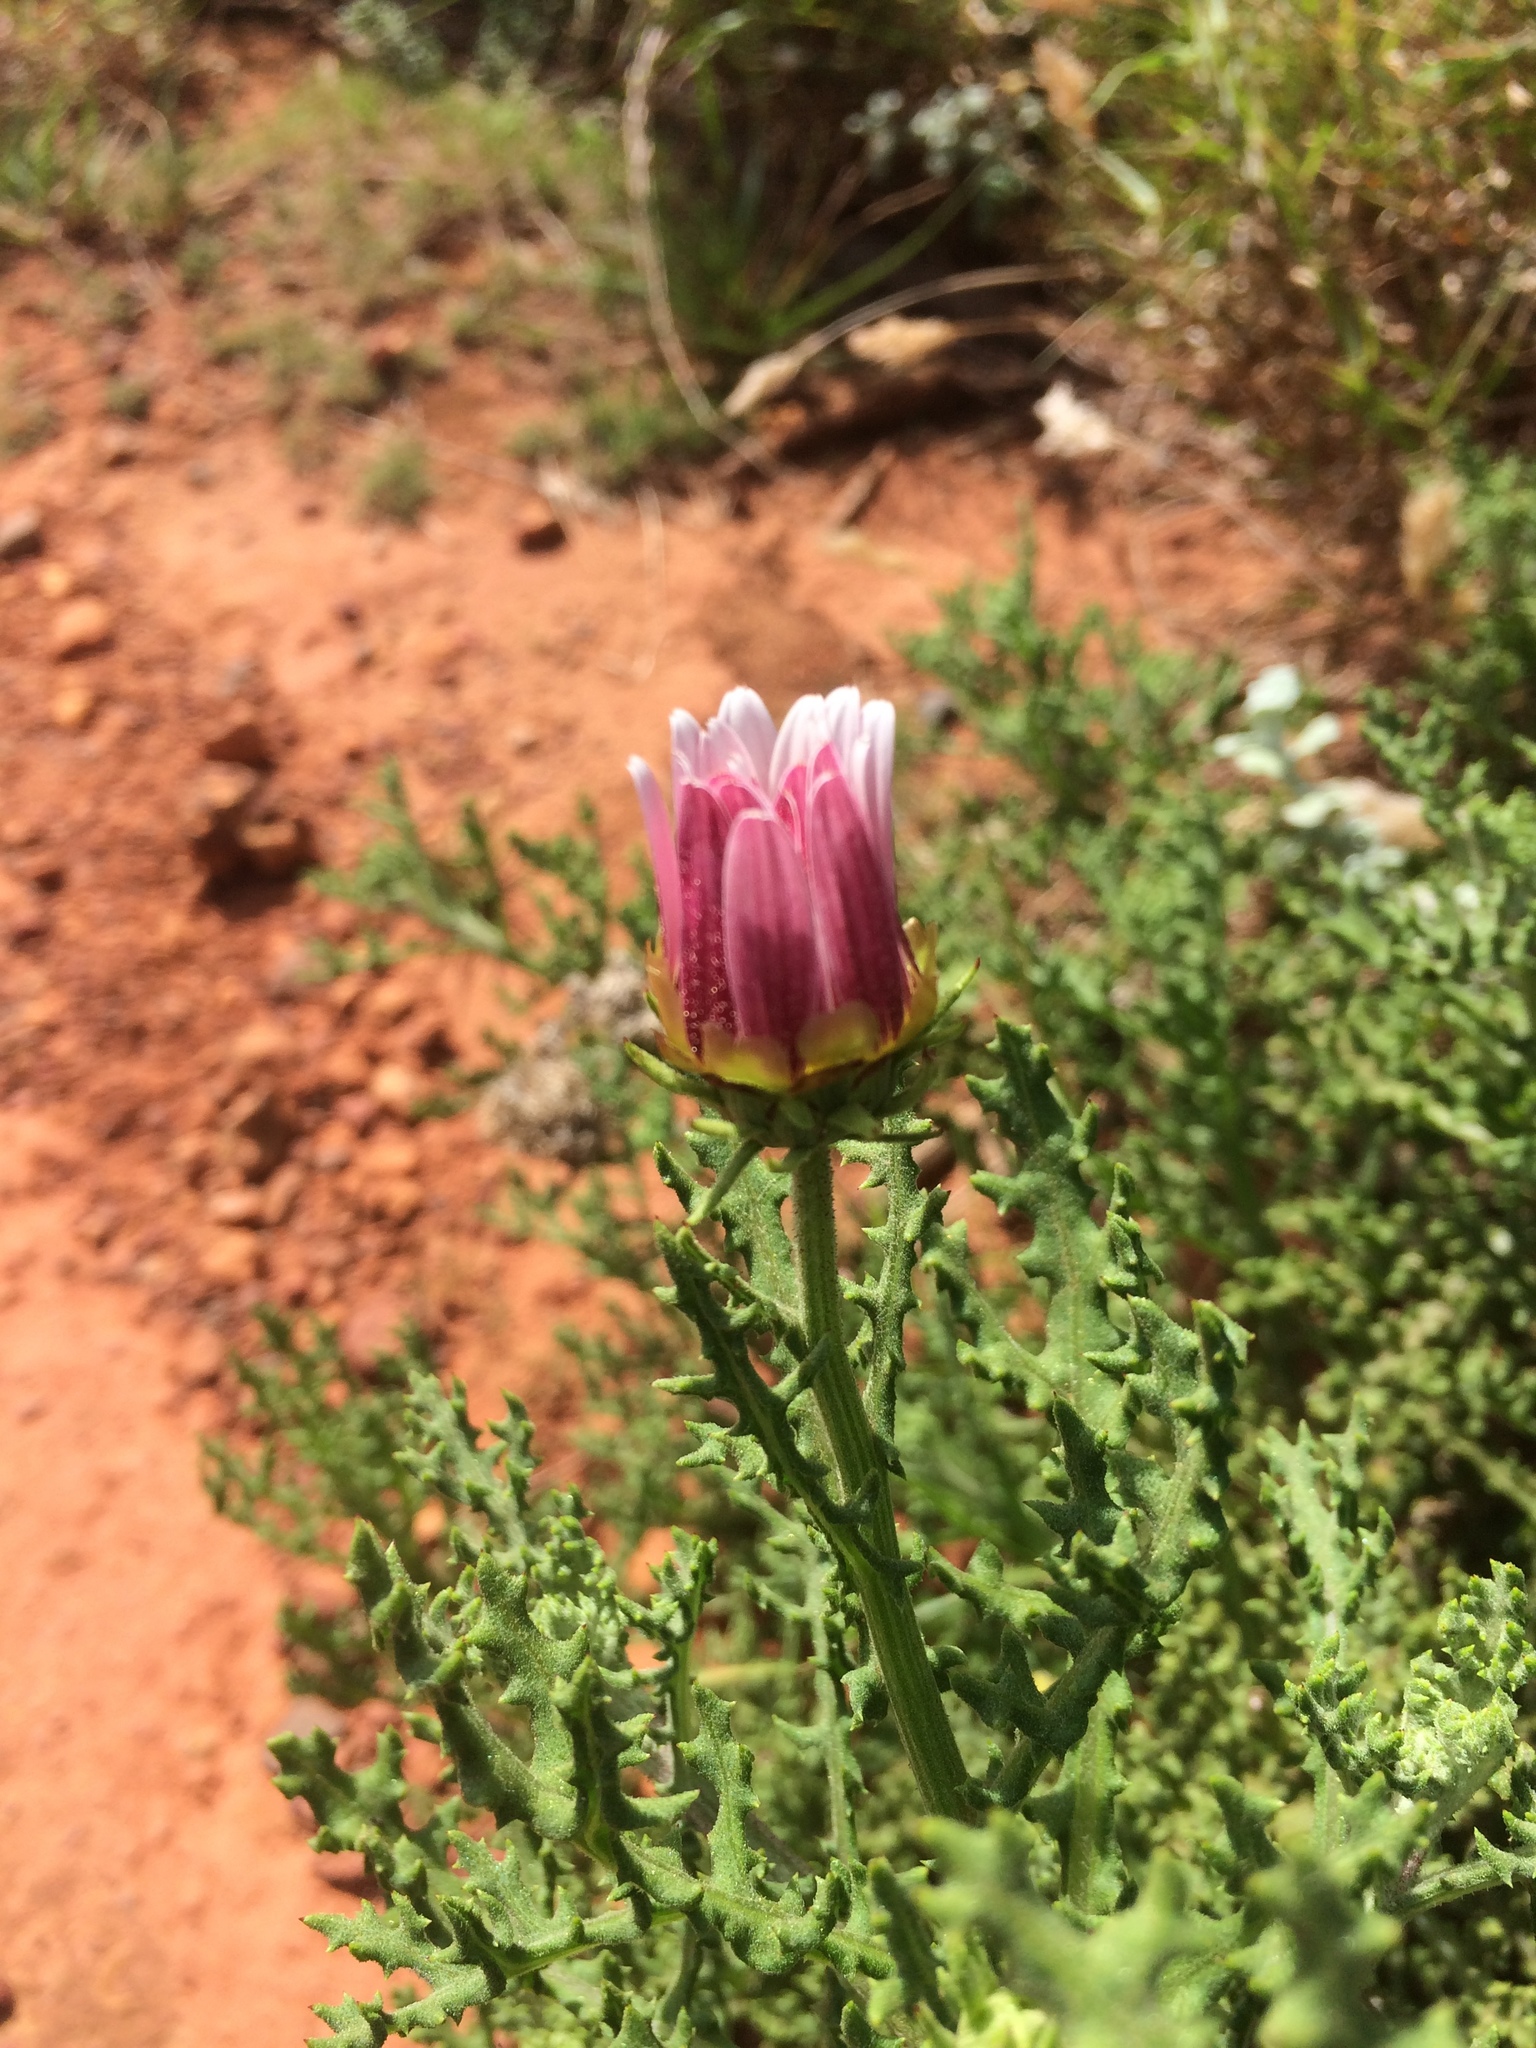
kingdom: Plantae
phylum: Tracheophyta
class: Magnoliopsida
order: Asterales
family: Asteraceae
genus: Arctotis
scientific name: Arctotis aspera
